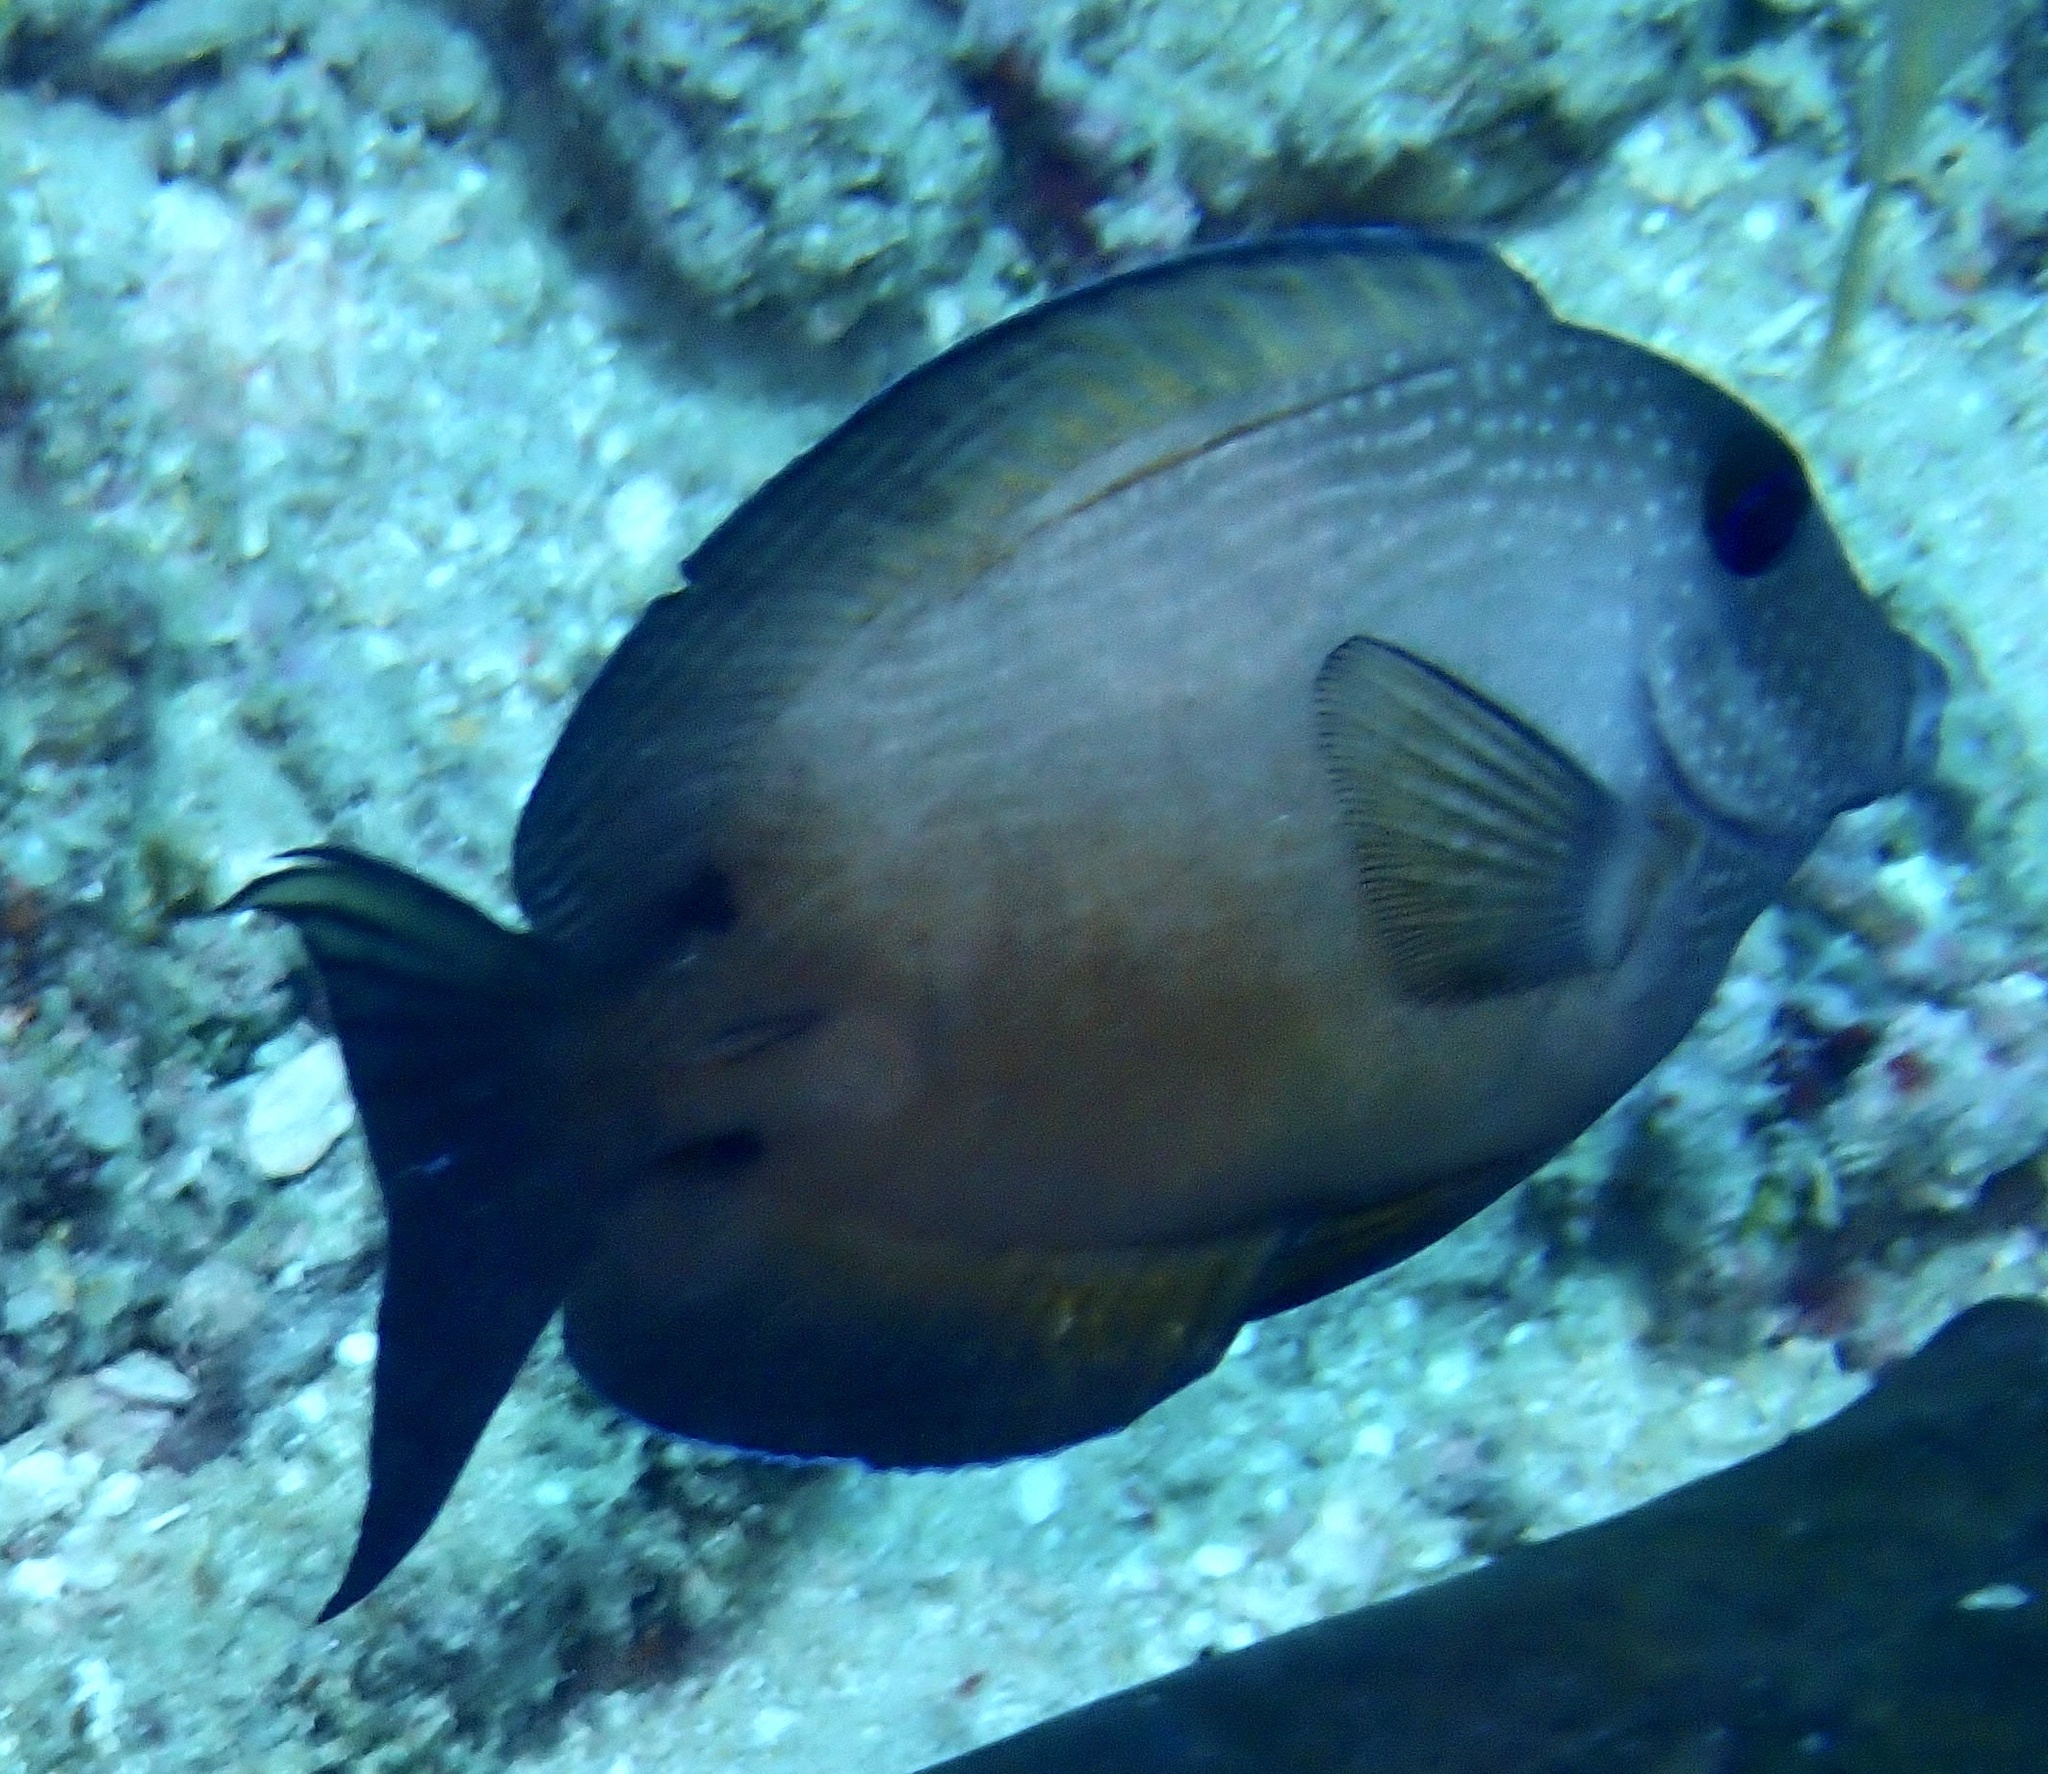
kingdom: Animalia
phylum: Chordata
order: Perciformes
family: Acanthuridae
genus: Ctenochaetus
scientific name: Ctenochaetus binotatus
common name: Two-spot bristletooth
